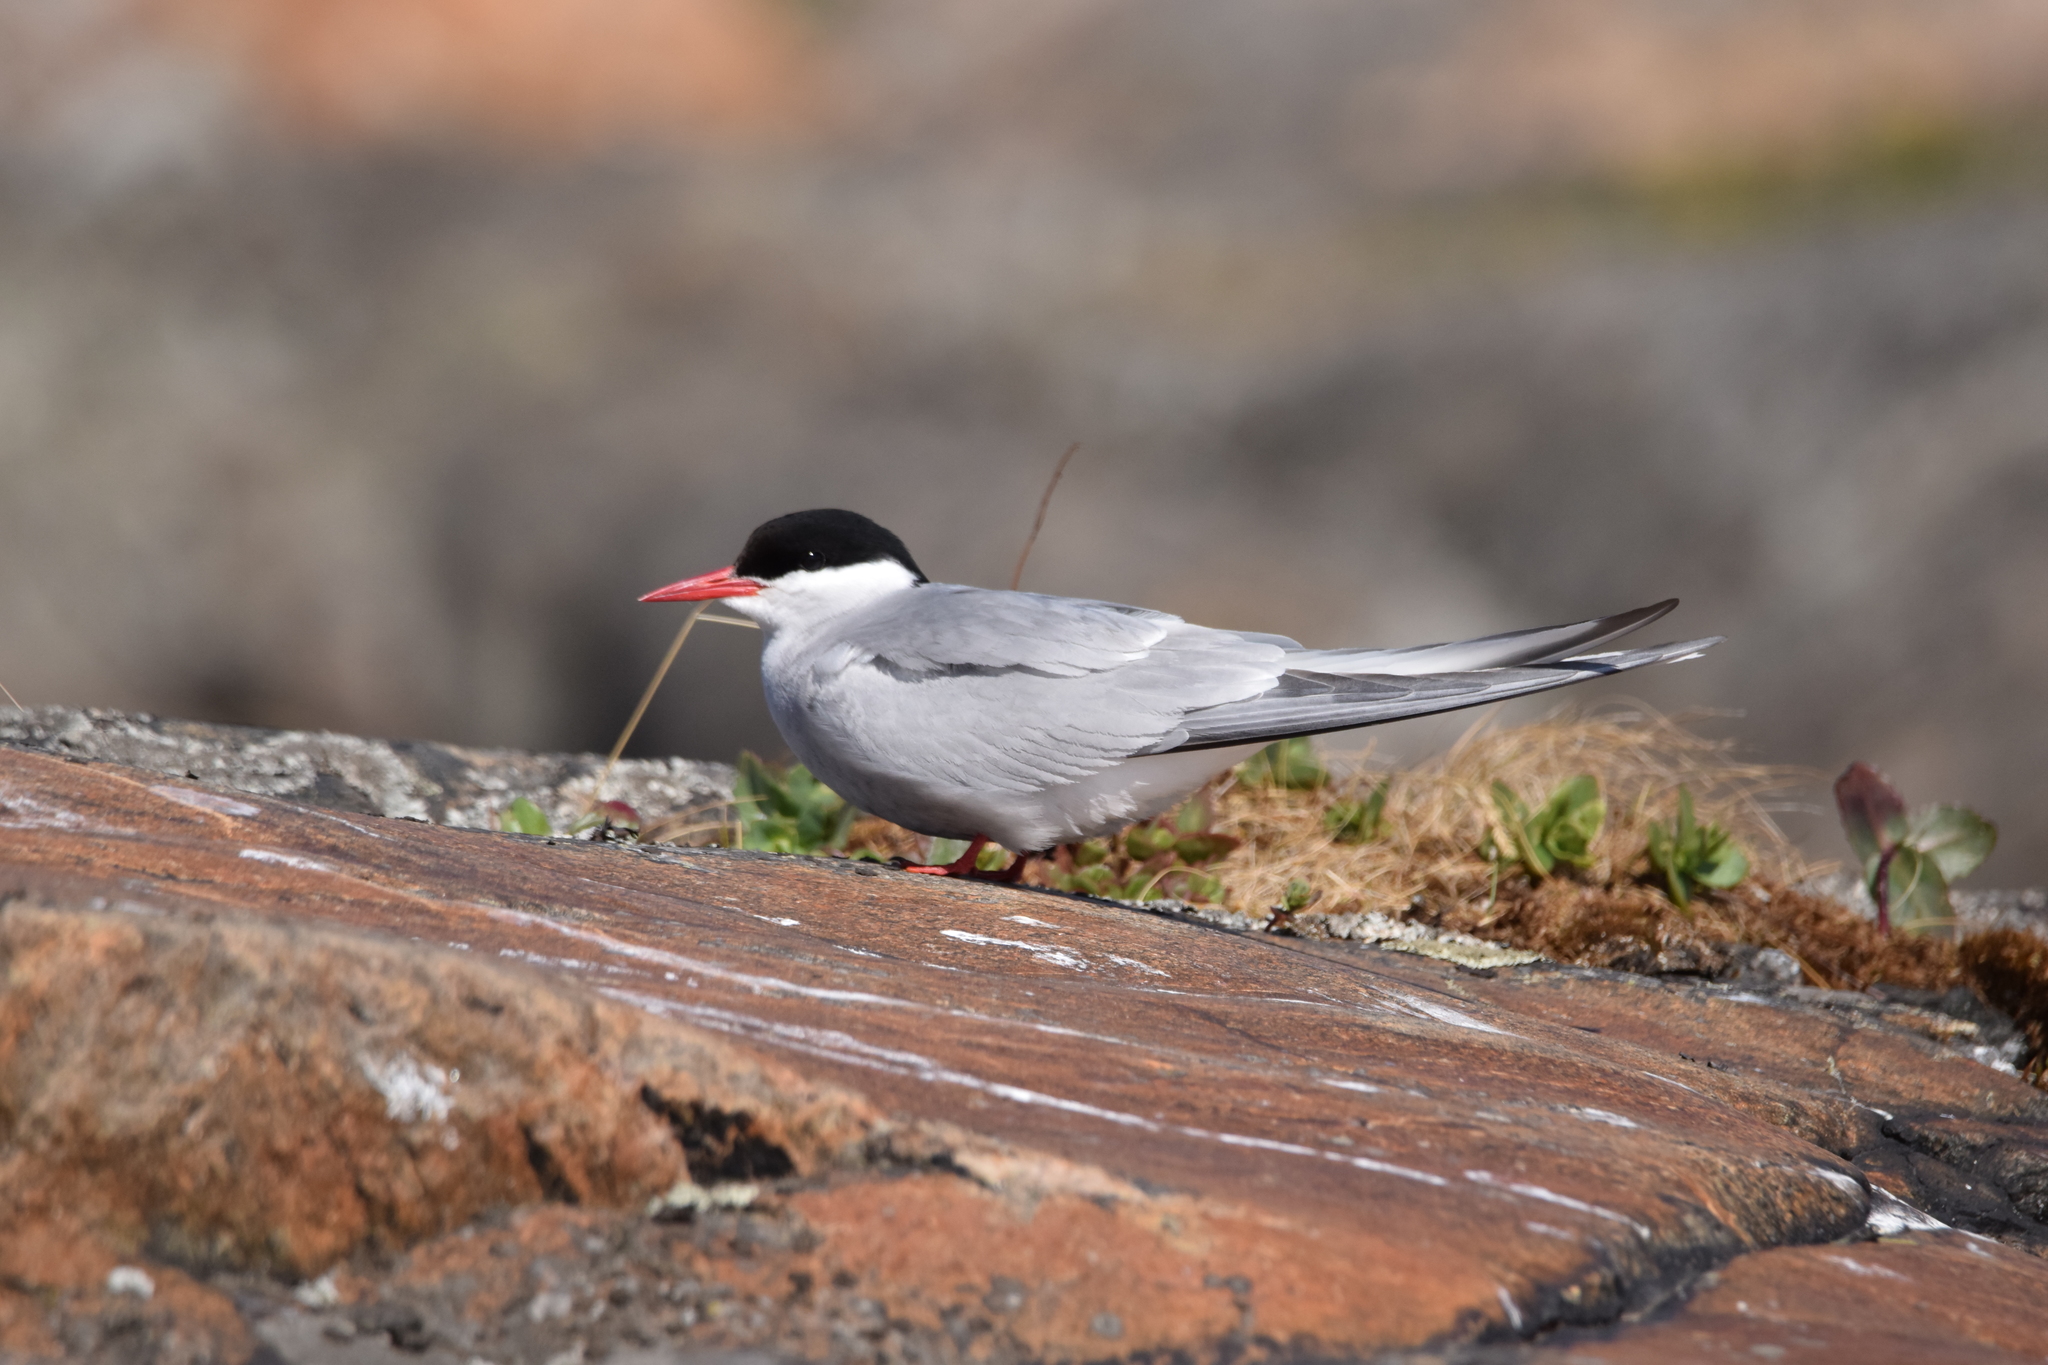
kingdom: Animalia
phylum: Chordata
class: Aves
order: Charadriiformes
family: Laridae
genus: Sterna
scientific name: Sterna paradisaea
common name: Arctic tern
